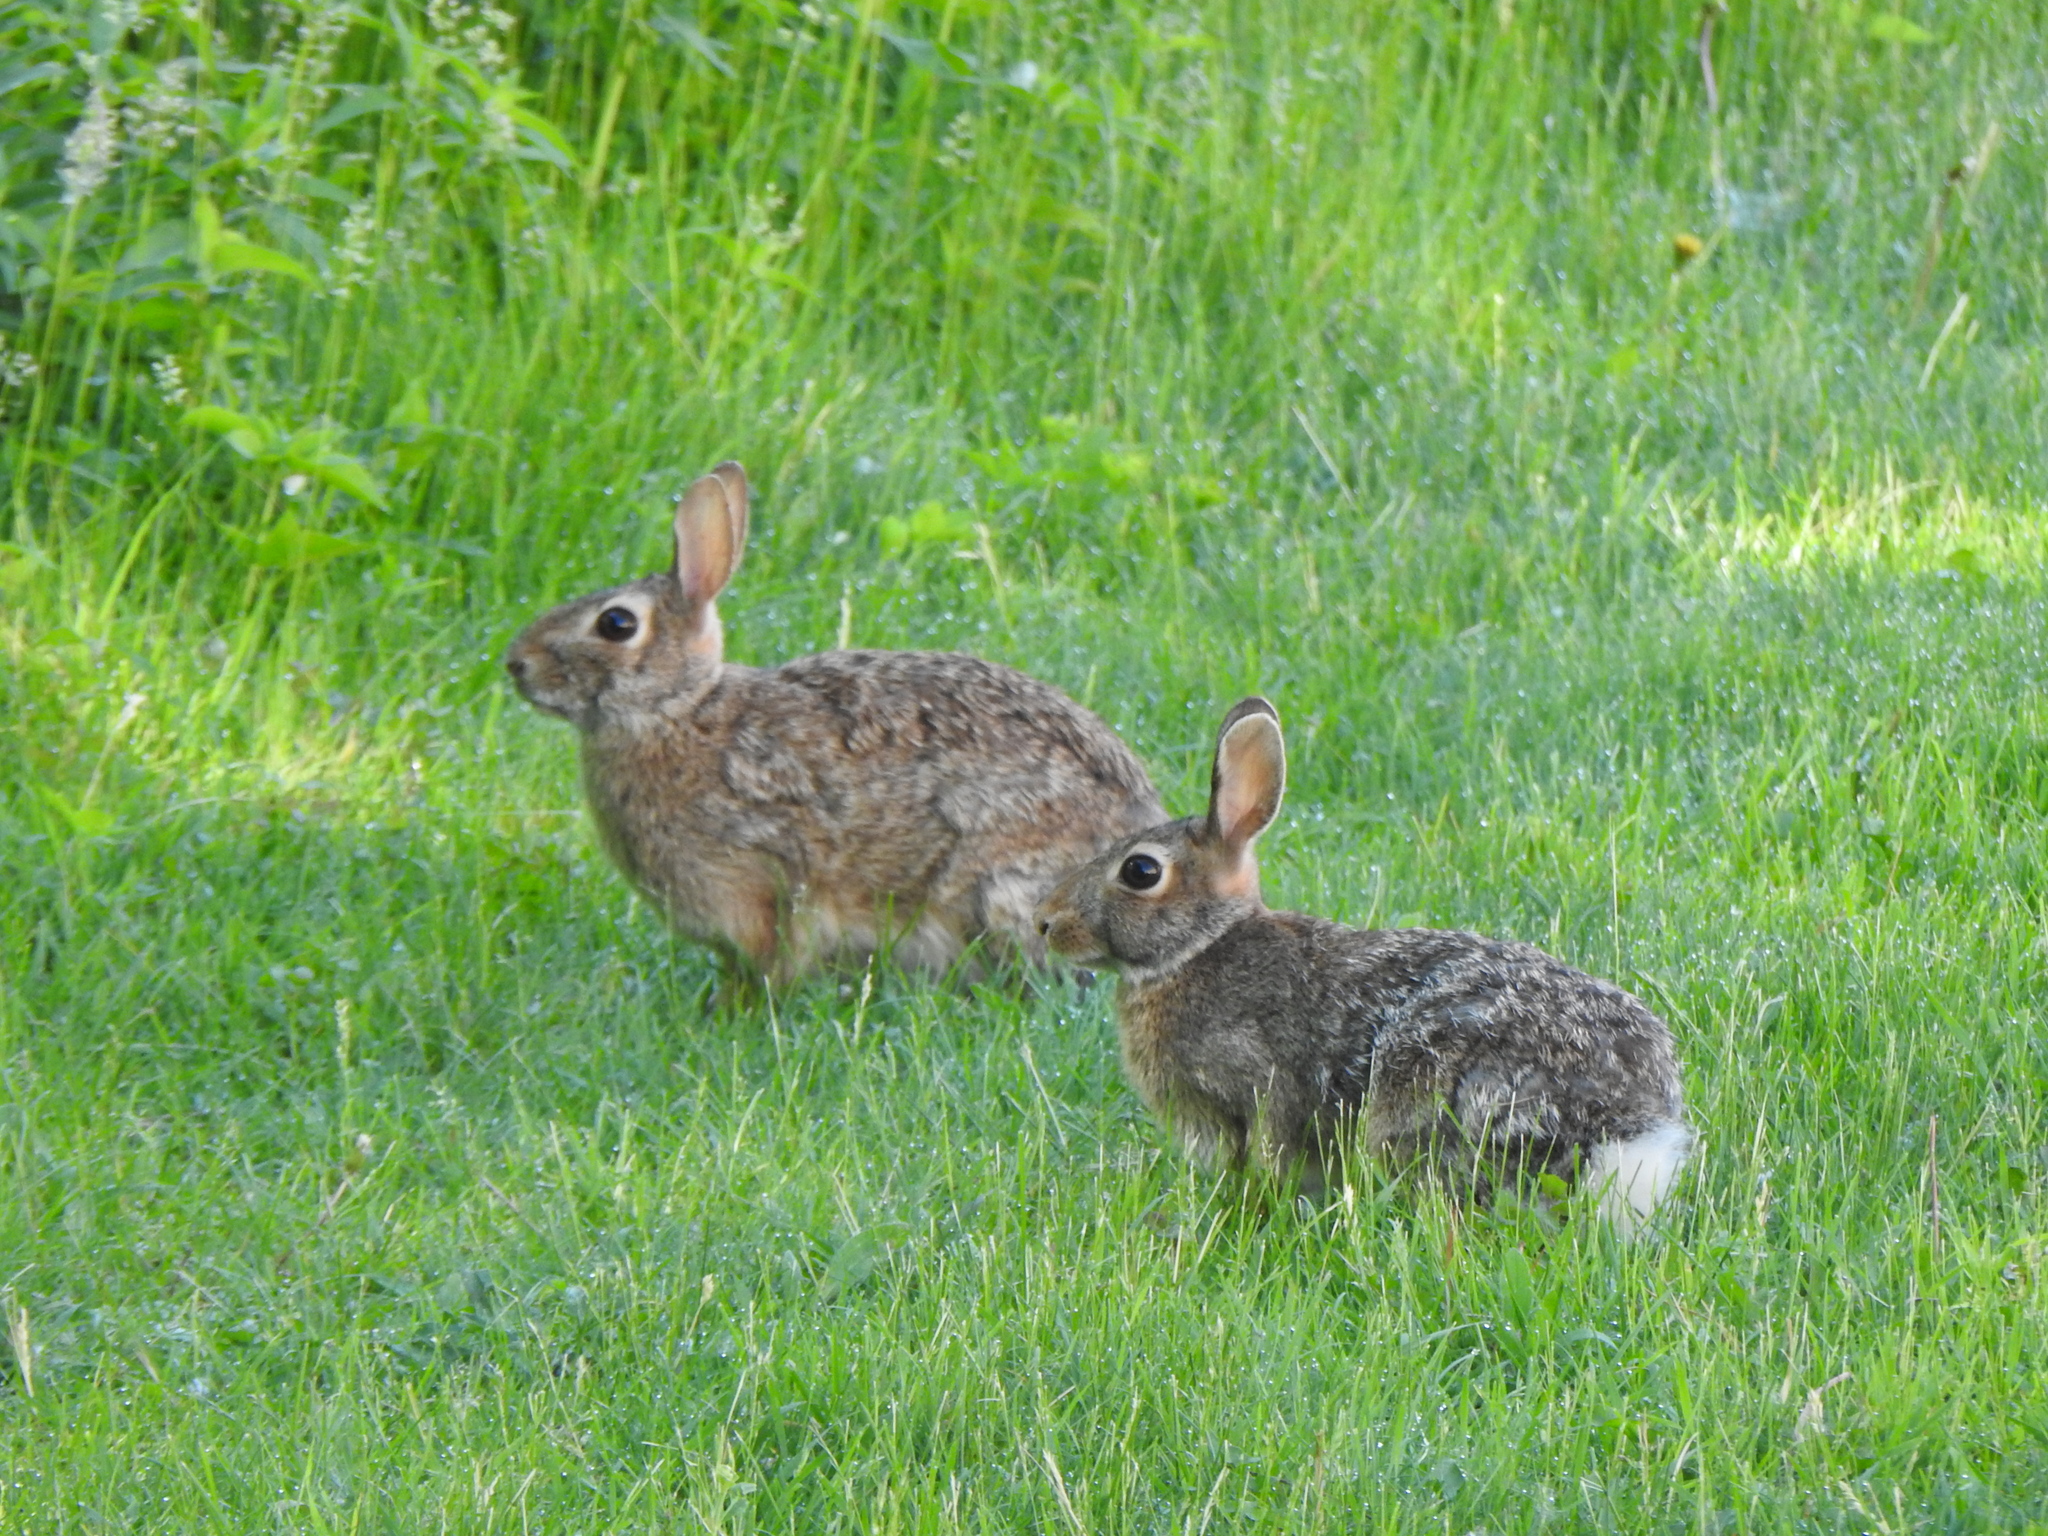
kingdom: Animalia
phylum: Chordata
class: Mammalia
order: Lagomorpha
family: Leporidae
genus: Sylvilagus
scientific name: Sylvilagus floridanus
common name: Eastern cottontail
